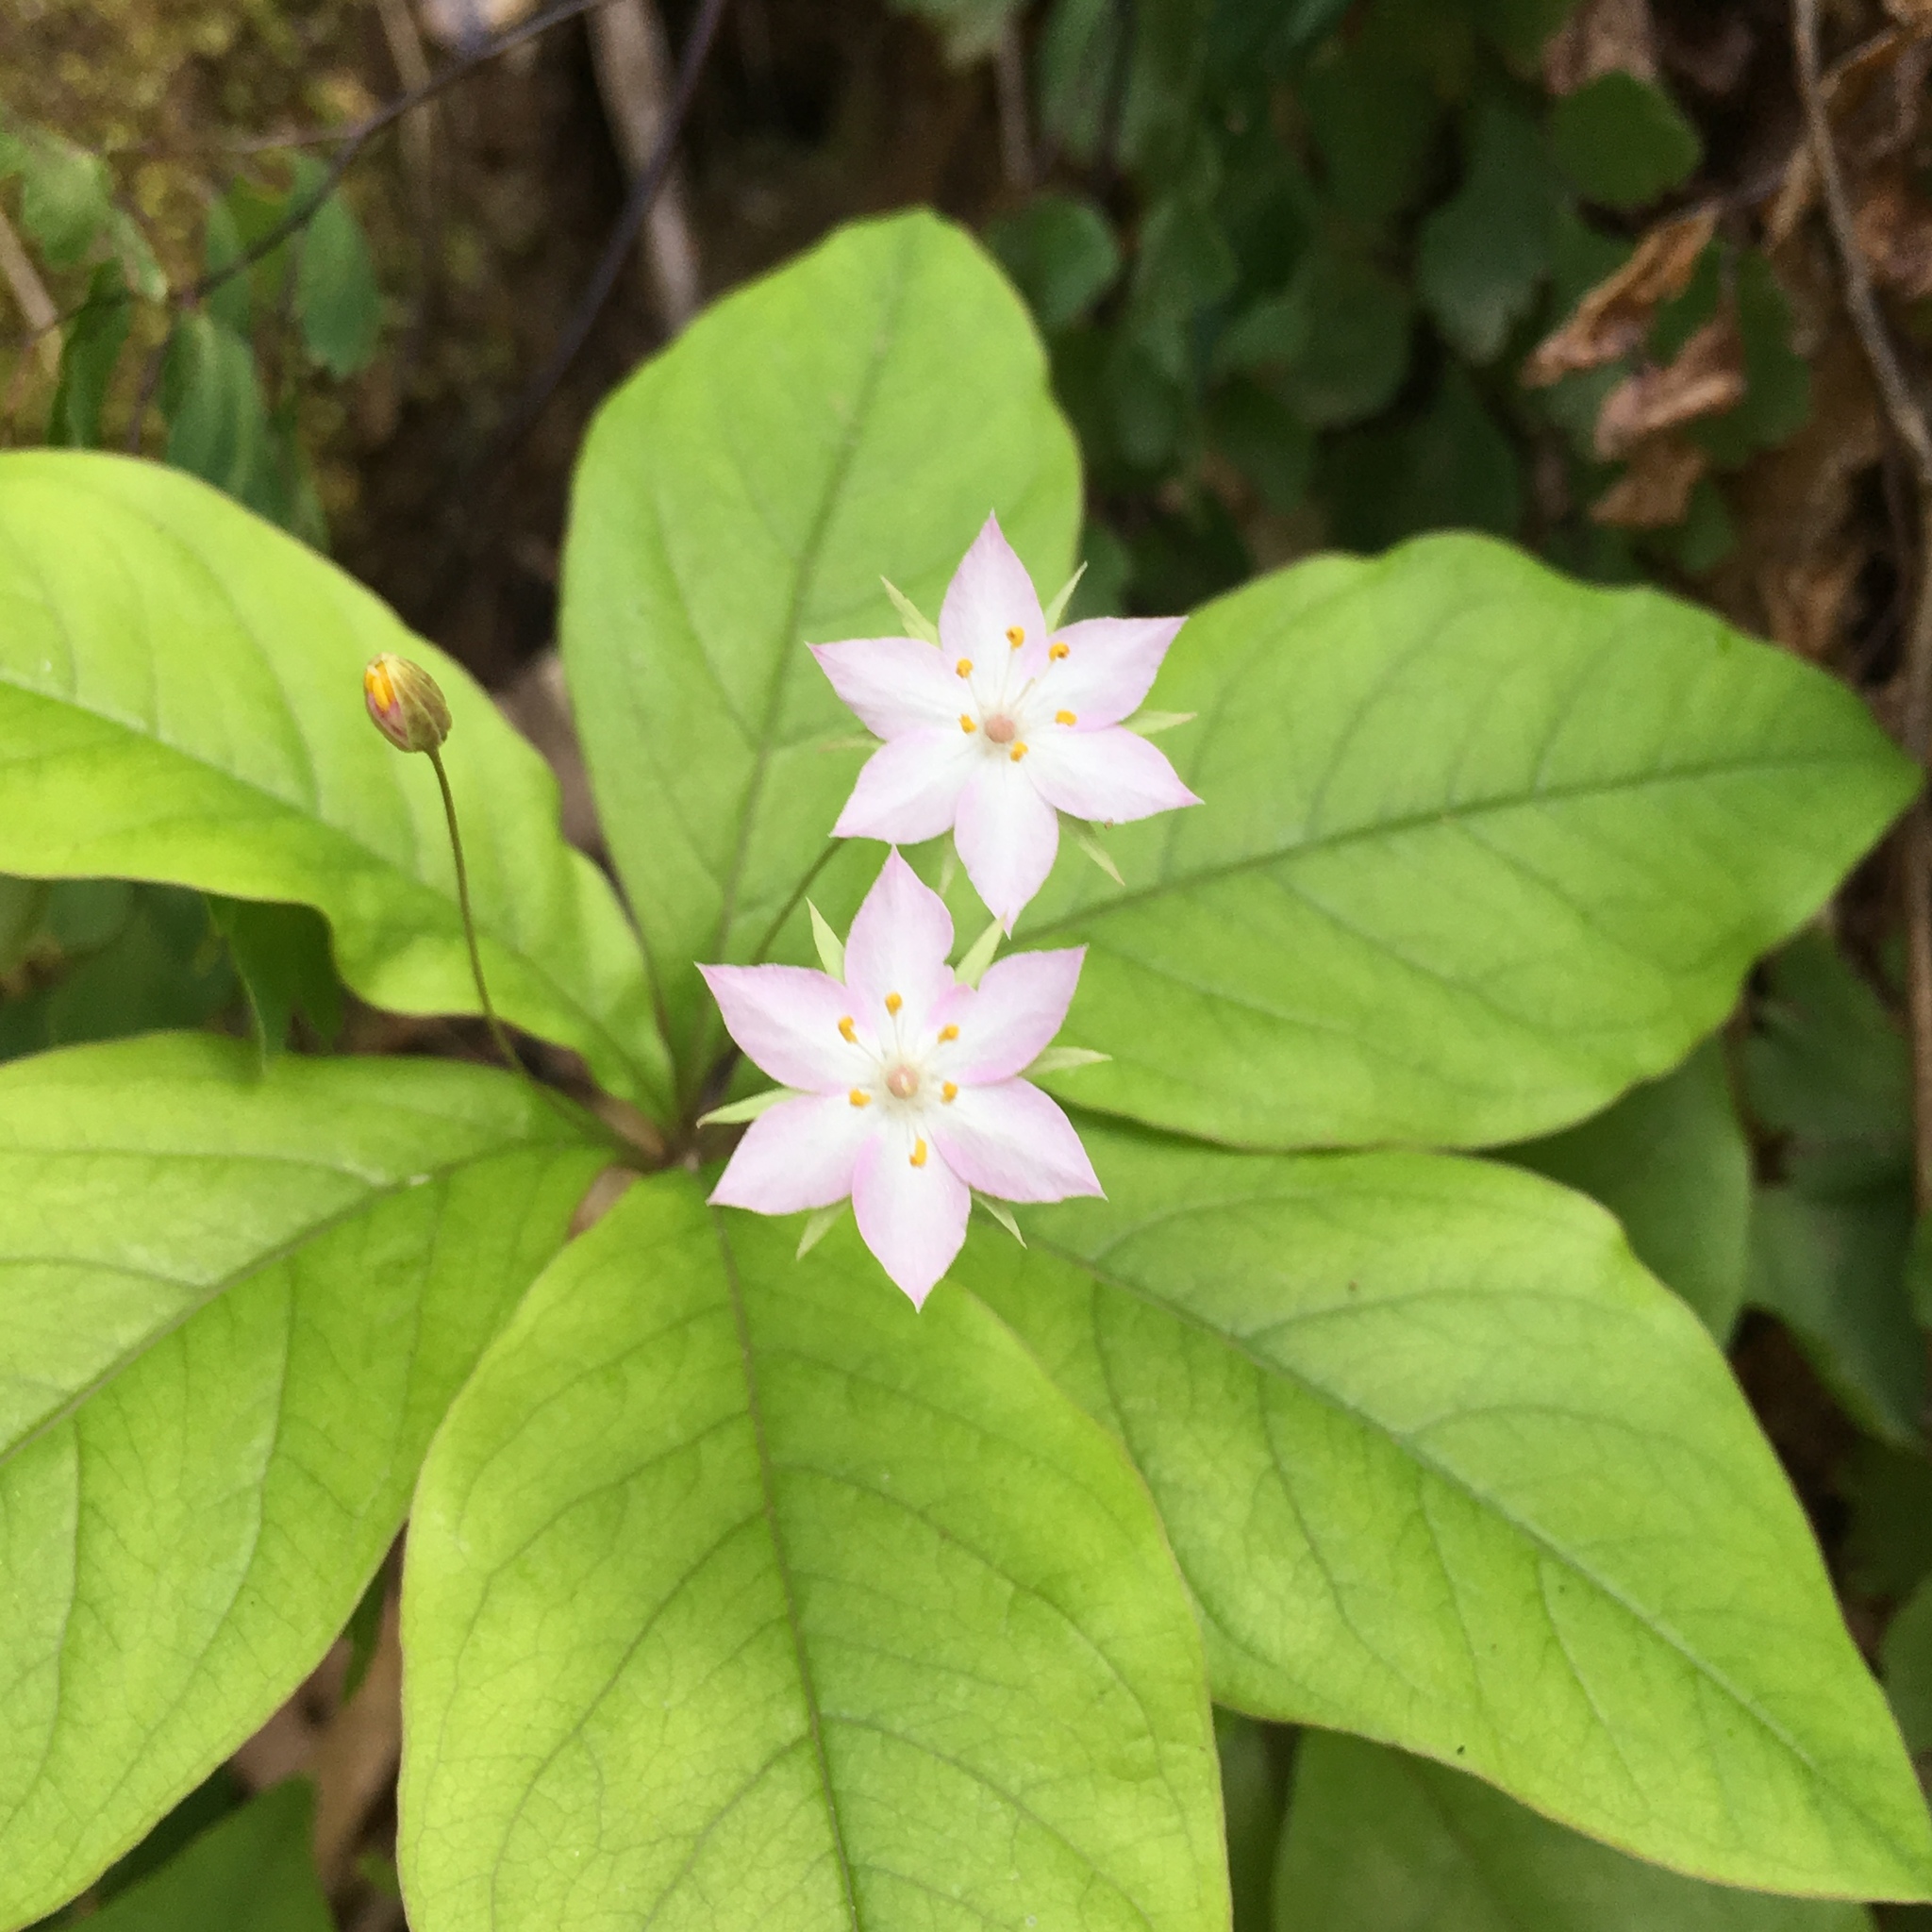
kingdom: Plantae
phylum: Tracheophyta
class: Magnoliopsida
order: Ericales
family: Primulaceae
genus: Lysimachia
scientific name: Lysimachia latifolia
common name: Pacific starflower
